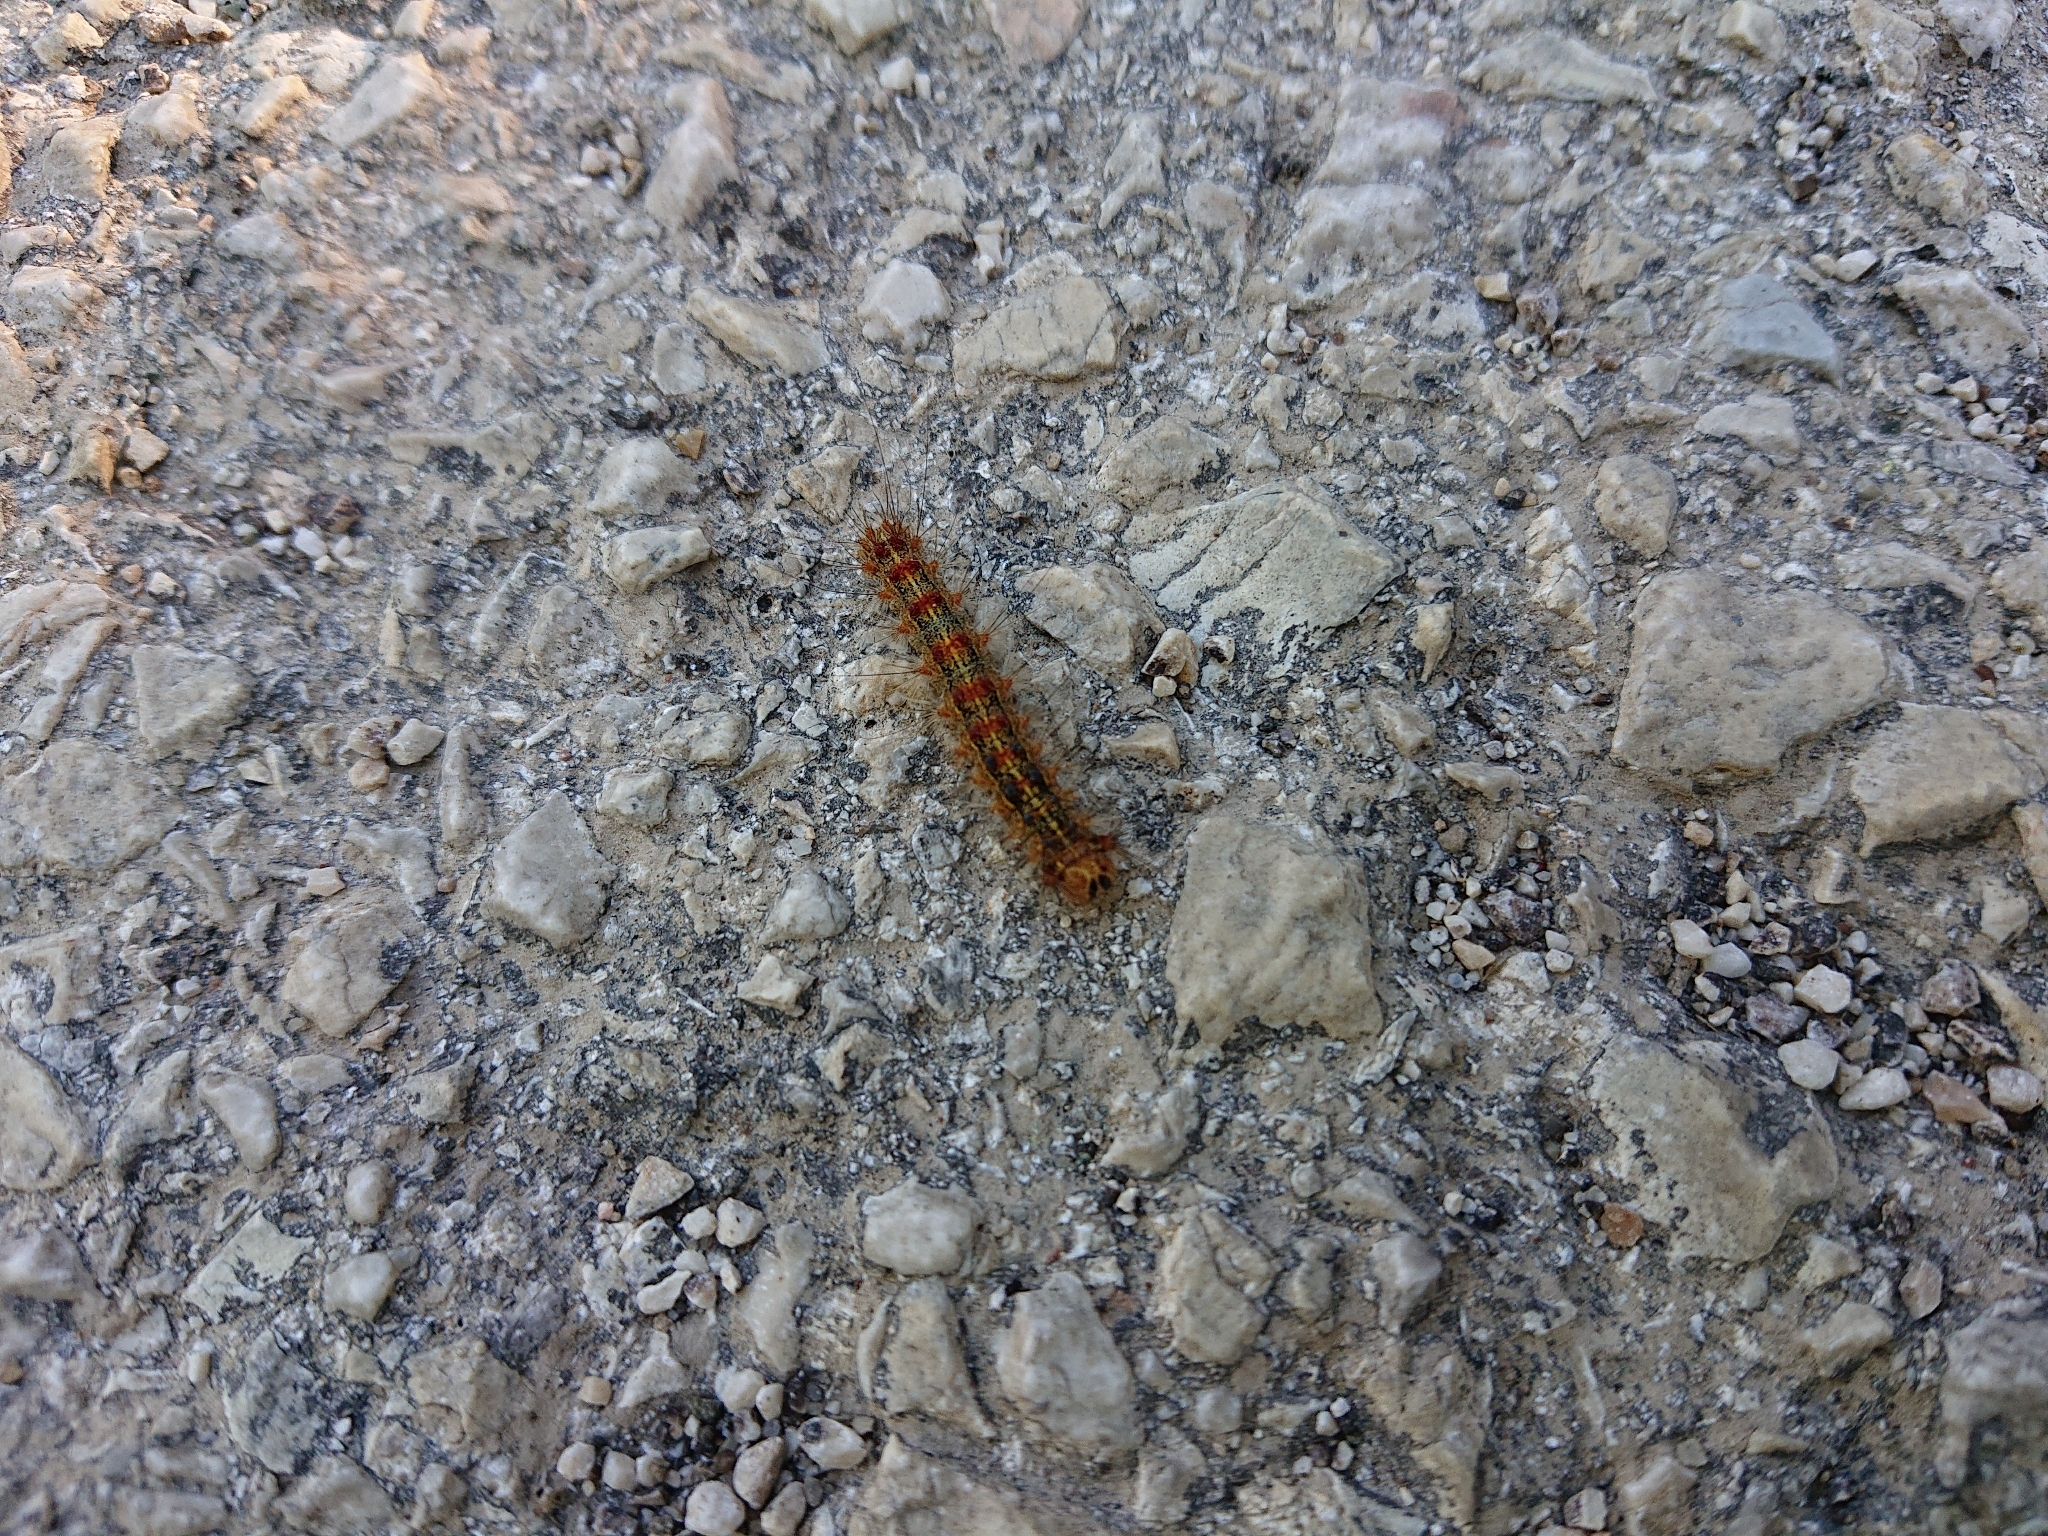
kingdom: Animalia
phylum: Arthropoda
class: Insecta
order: Lepidoptera
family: Erebidae
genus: Lymantria
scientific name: Lymantria dispar
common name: Gypsy moth
